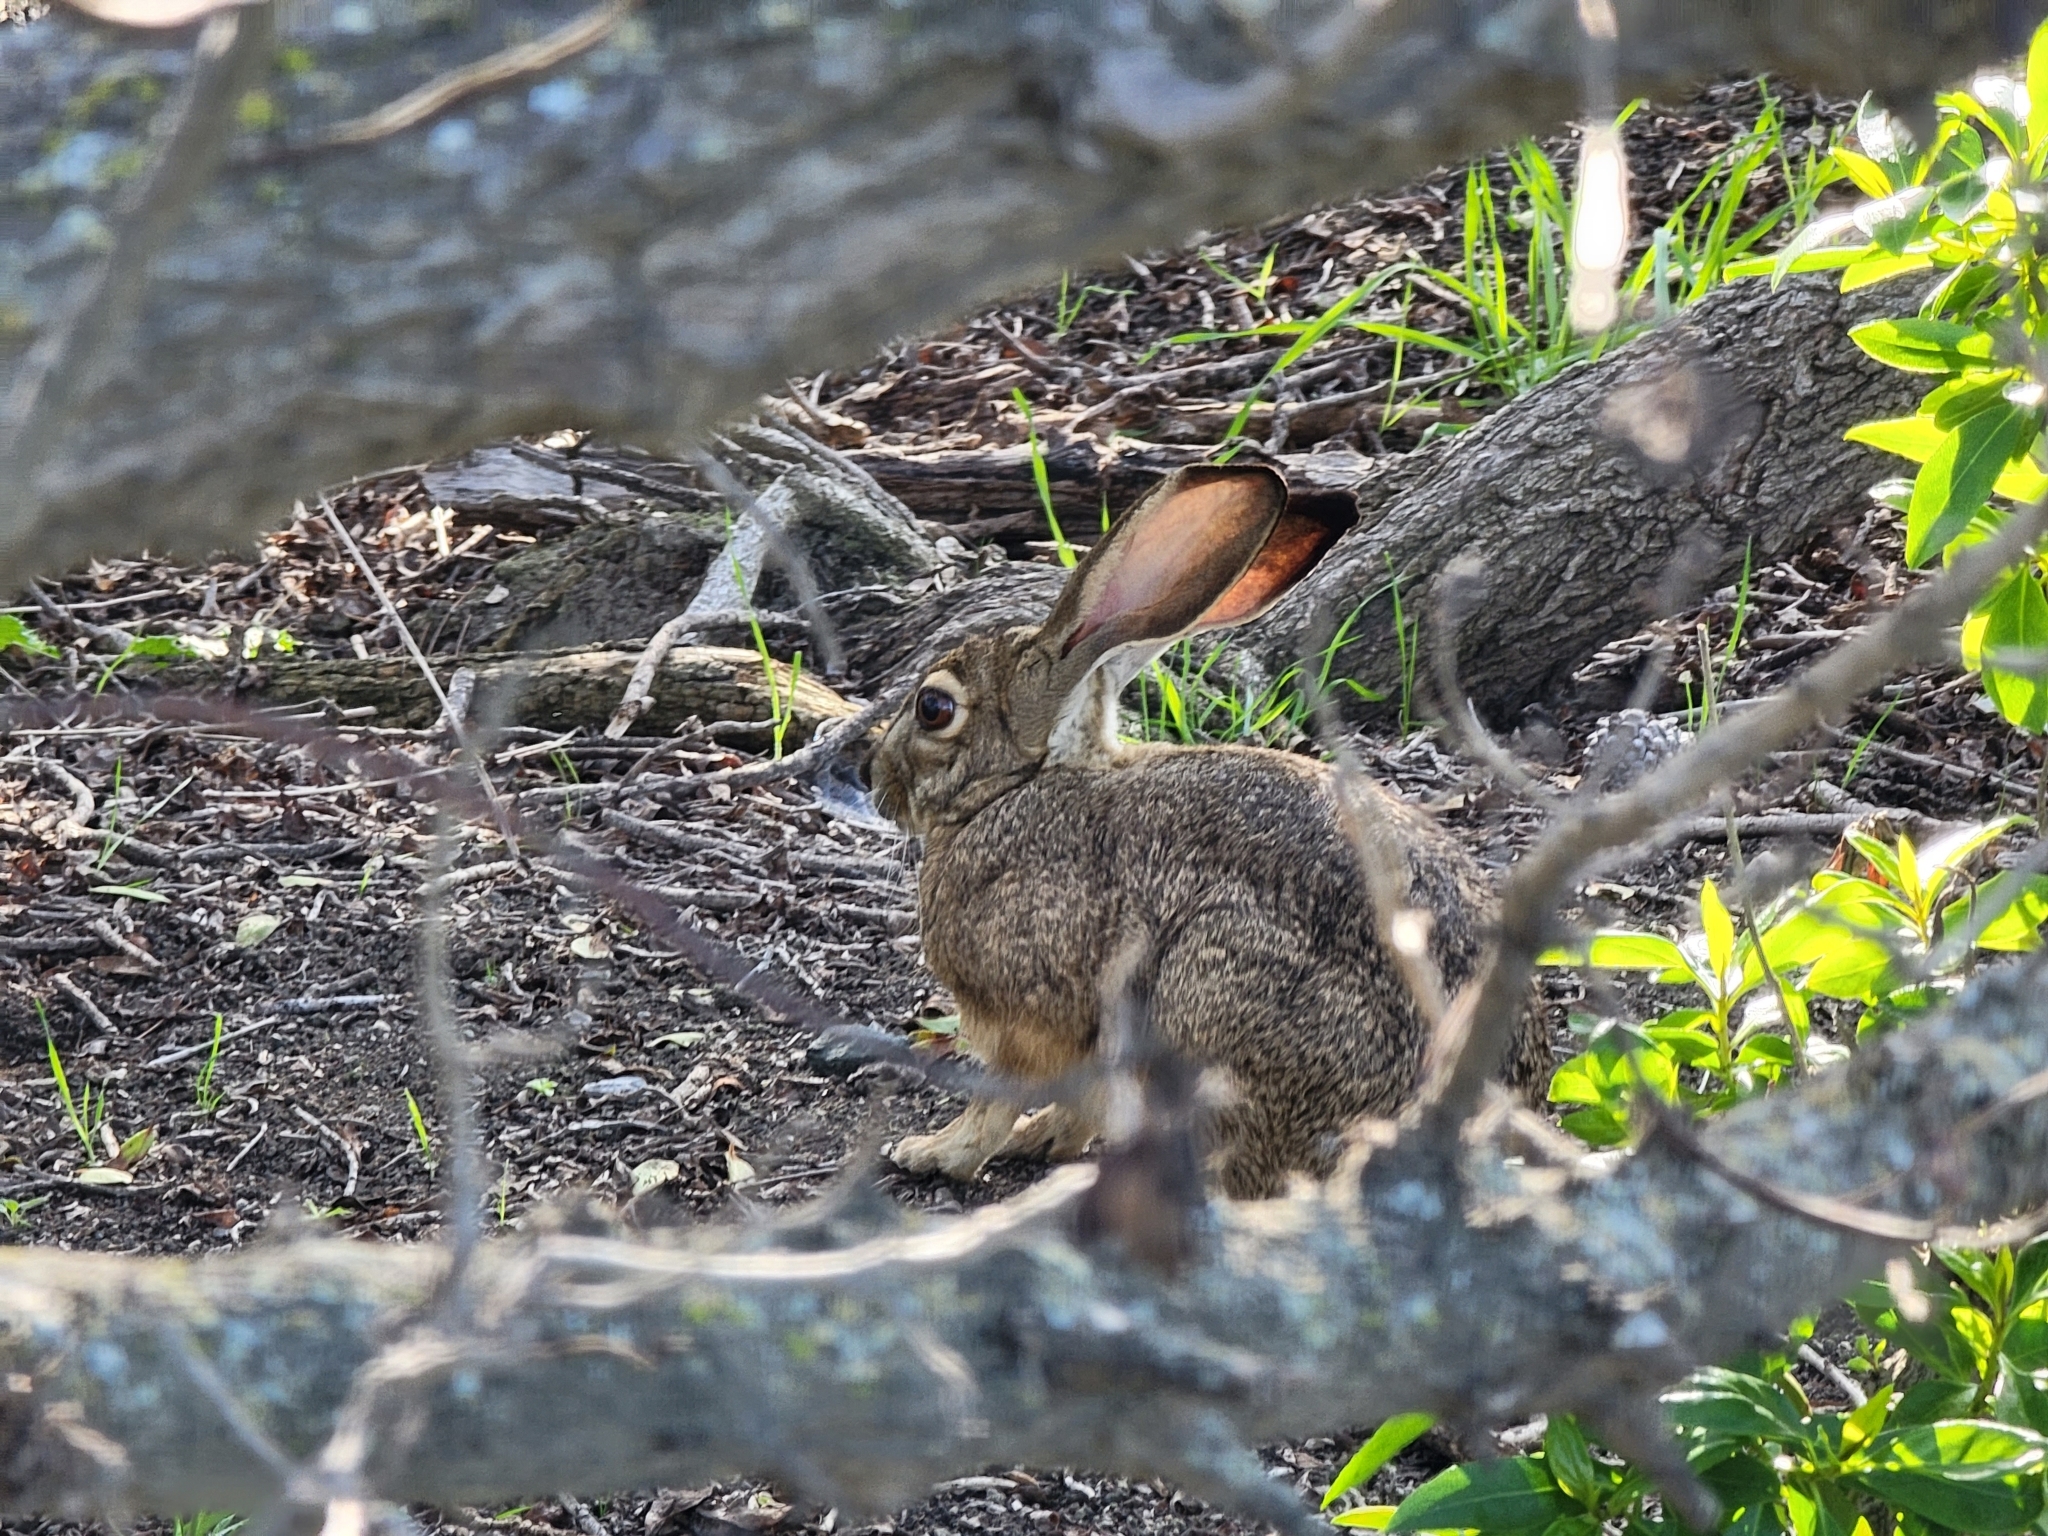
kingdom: Animalia
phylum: Chordata
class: Mammalia
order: Lagomorpha
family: Leporidae
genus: Lepus
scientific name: Lepus californicus
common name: Black-tailed jackrabbit
